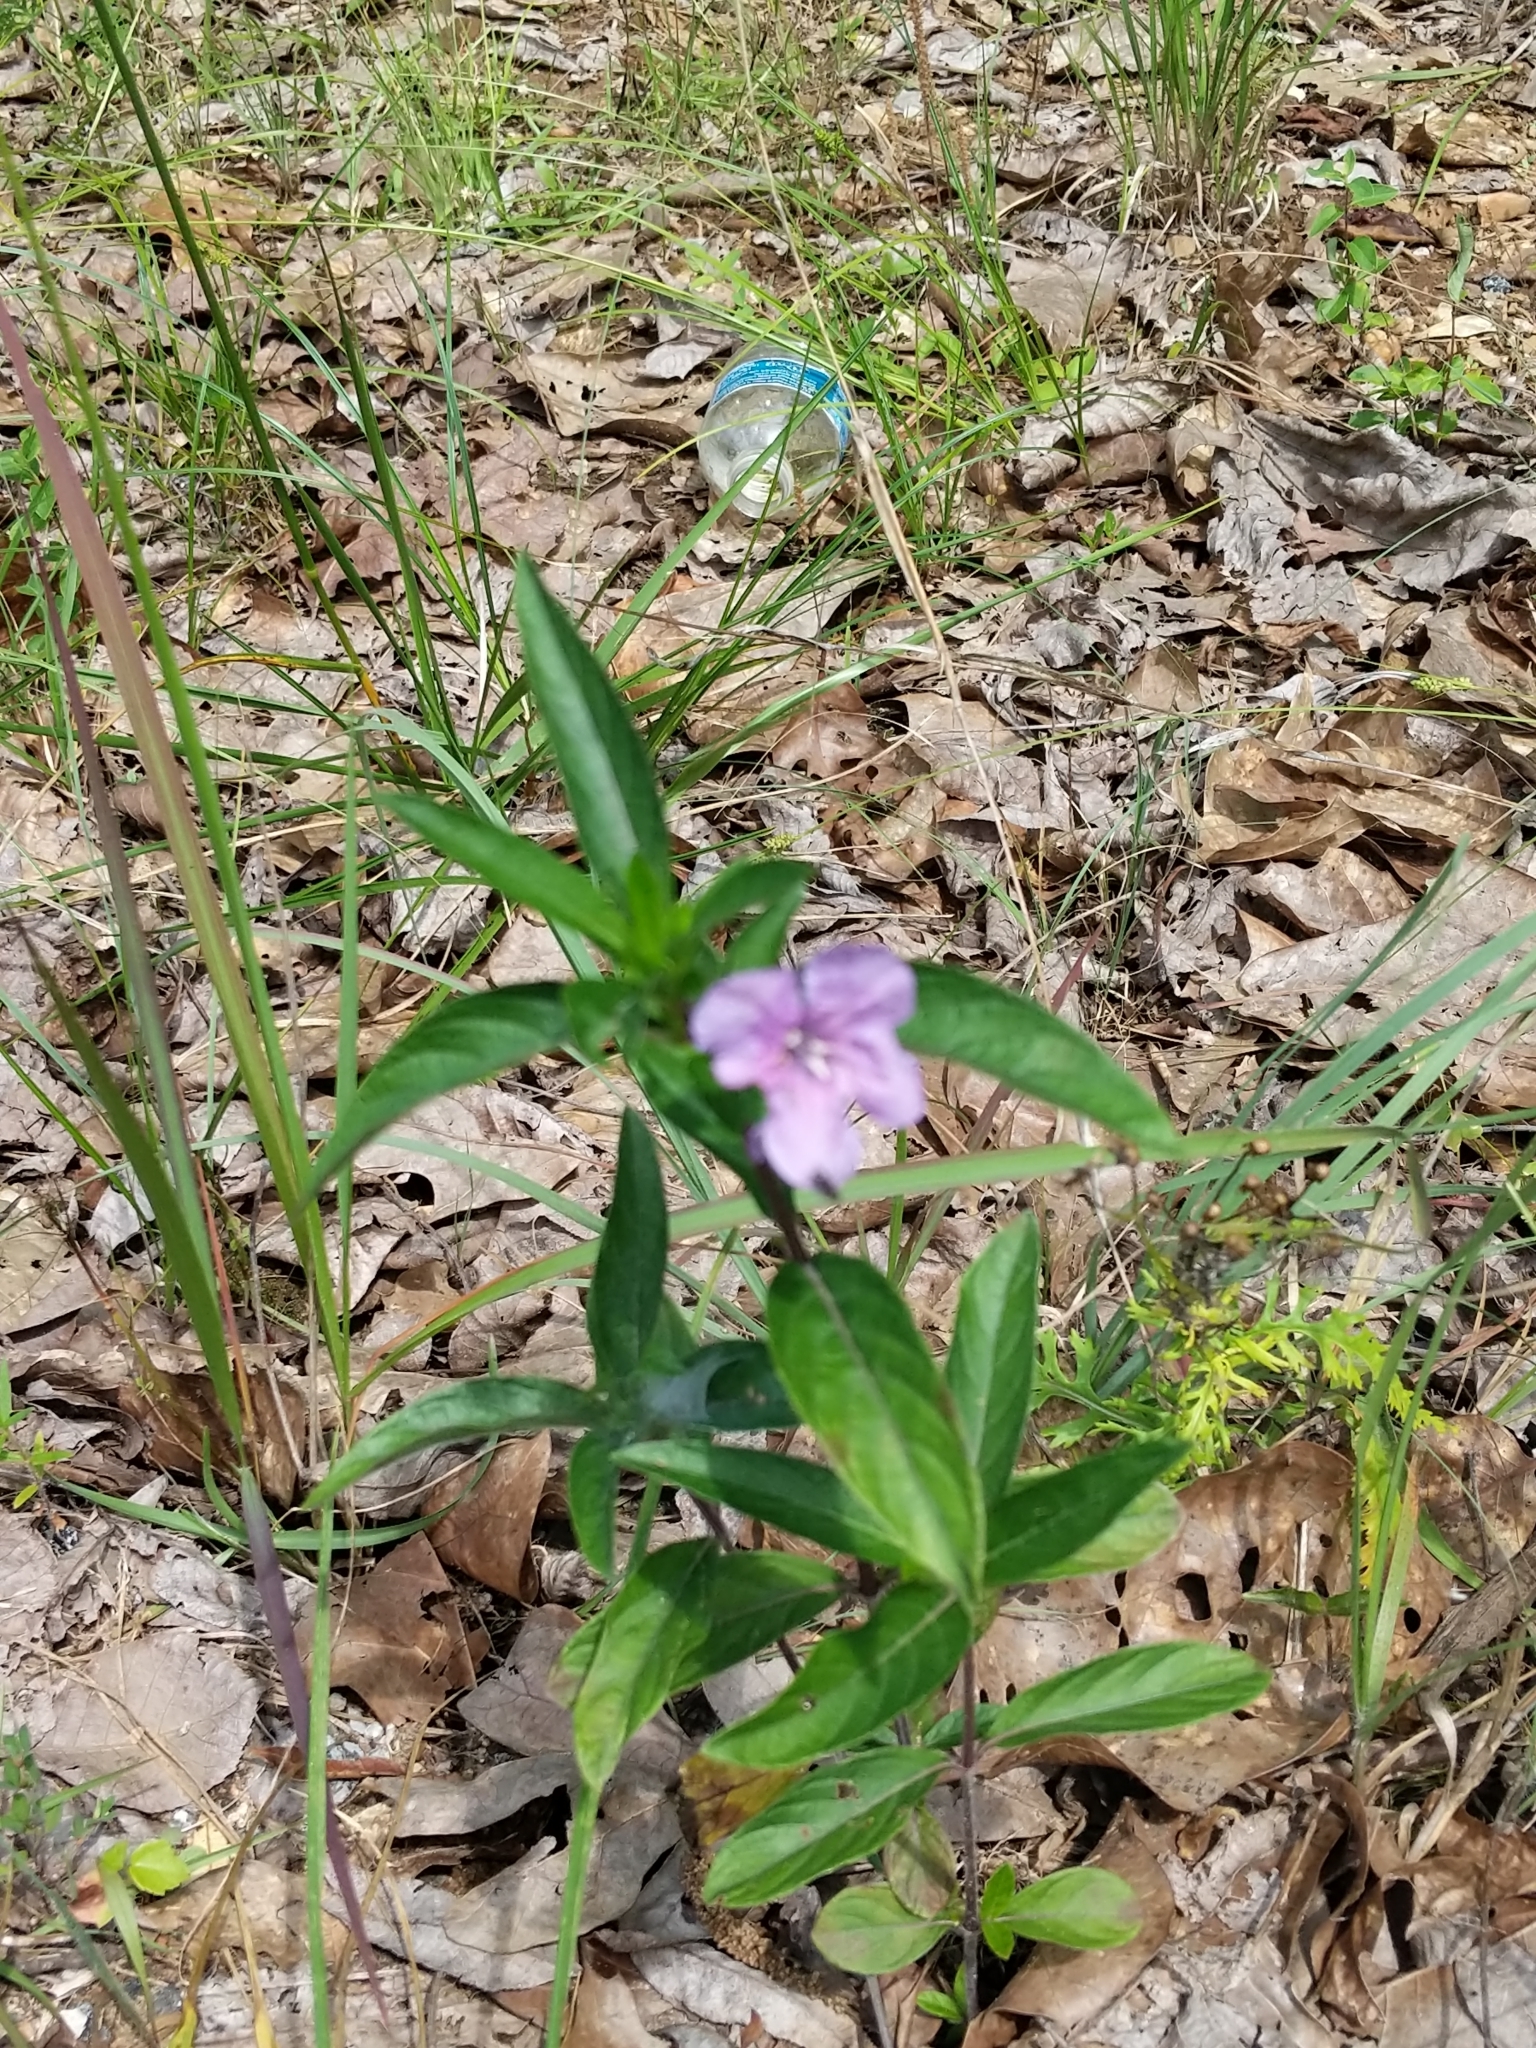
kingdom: Plantae
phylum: Tracheophyta
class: Magnoliopsida
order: Lamiales
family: Acanthaceae
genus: Ruellia
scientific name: Ruellia caroliniensis
